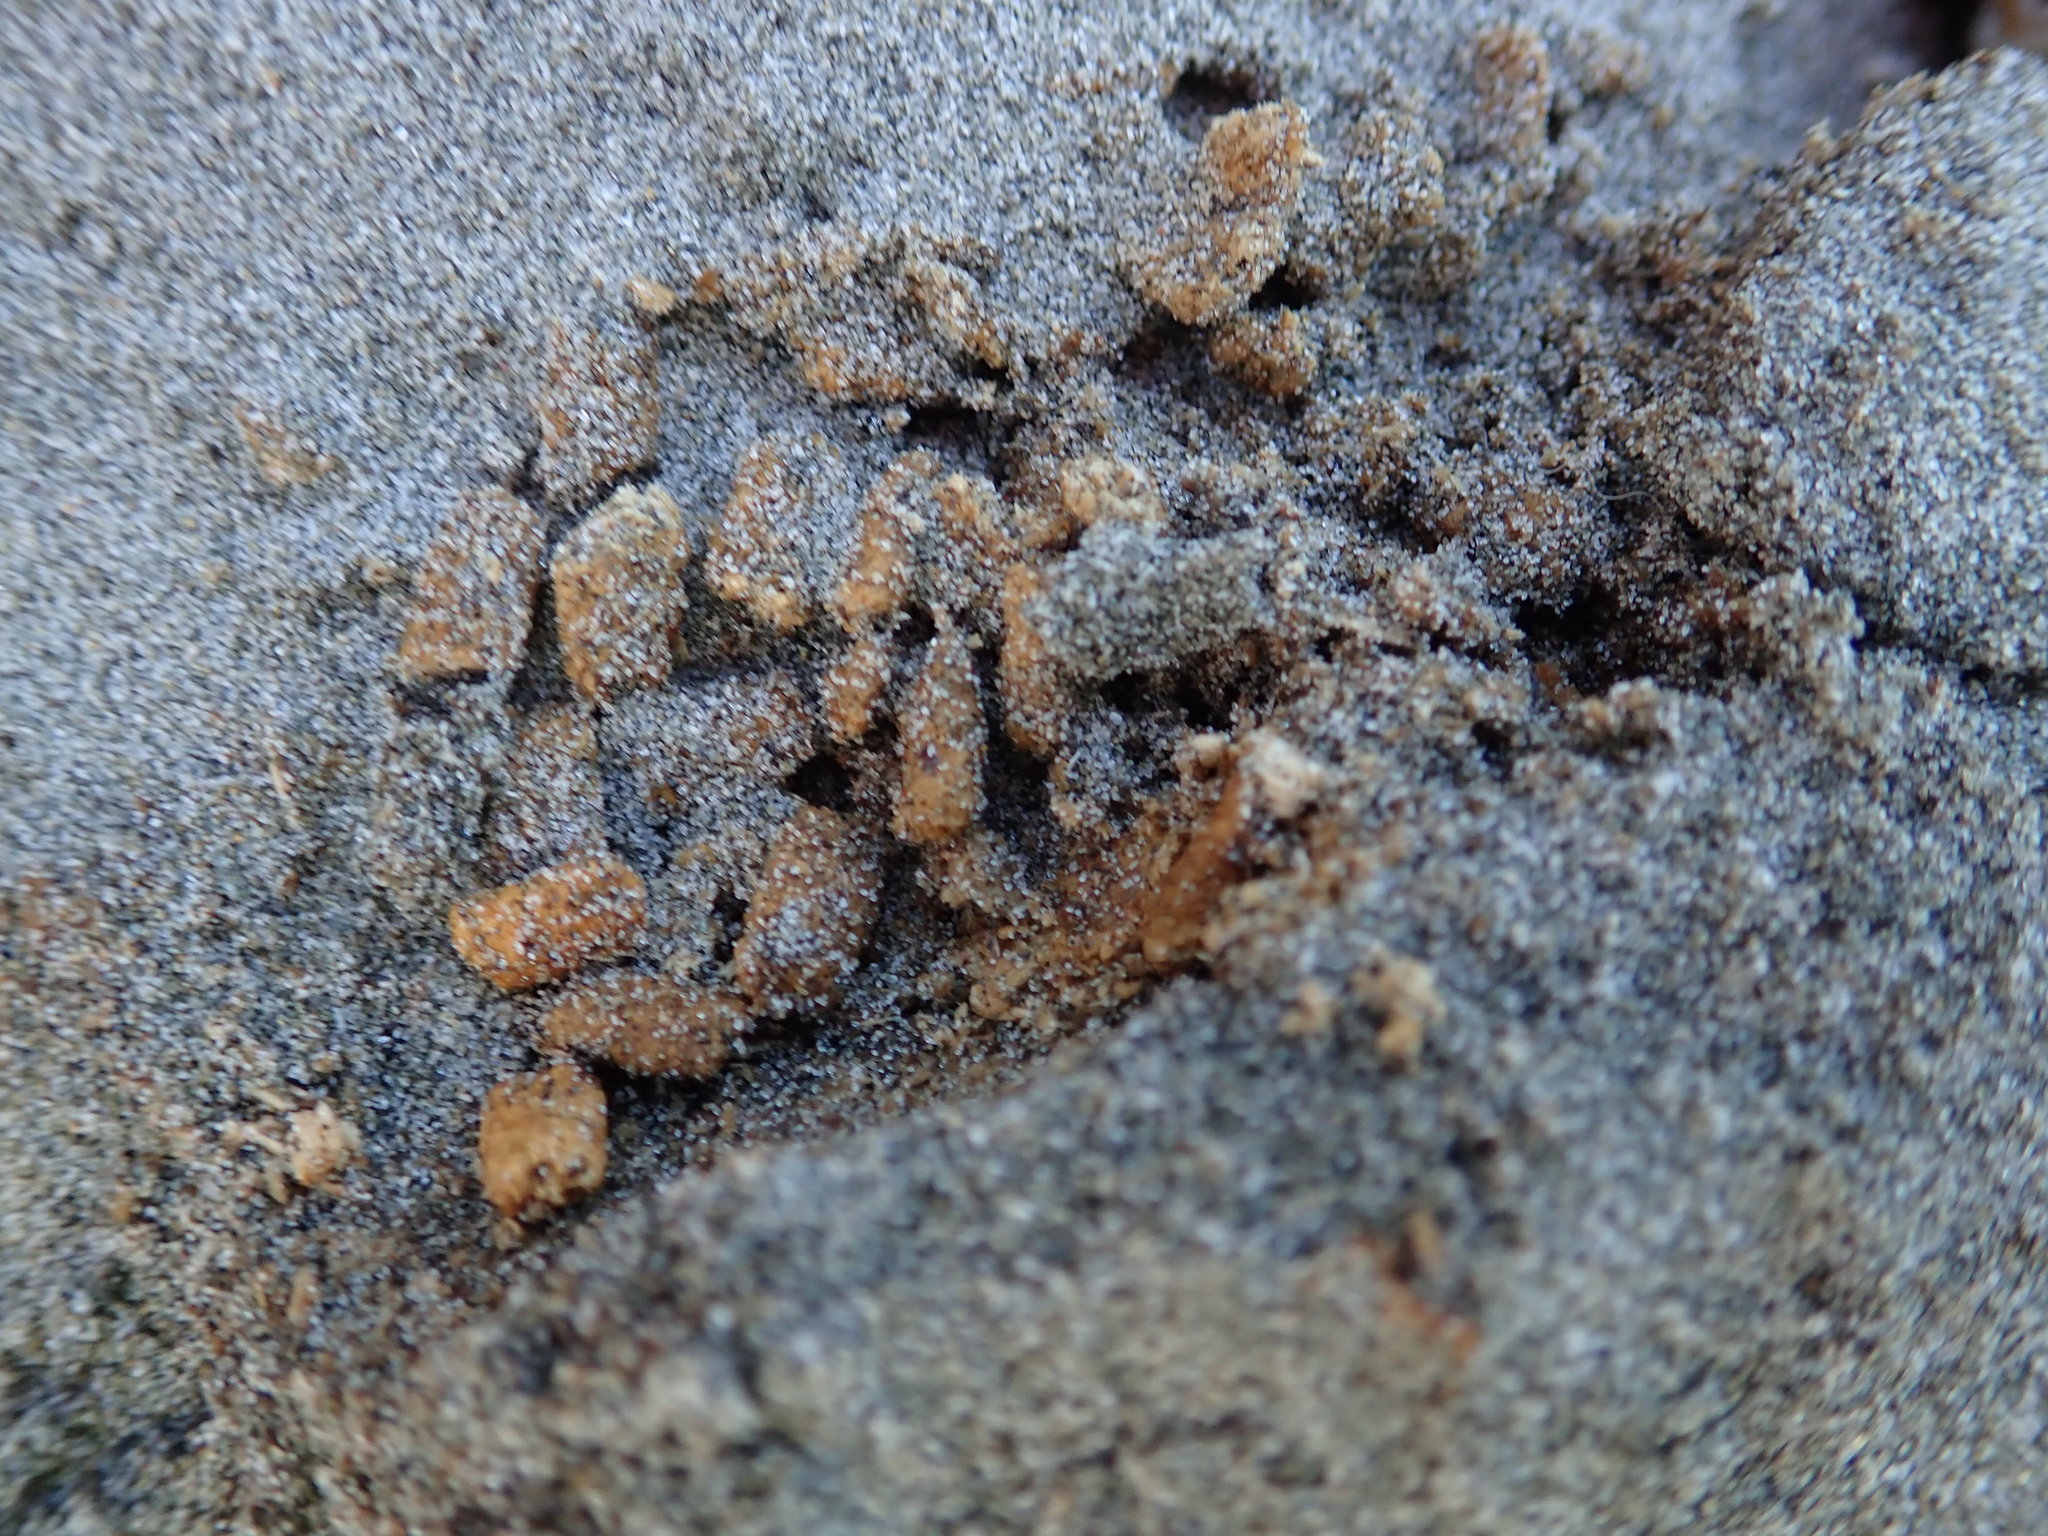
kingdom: Animalia
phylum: Arthropoda
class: Insecta
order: Coleoptera
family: Scarabaeidae
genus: Pericoptus
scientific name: Pericoptus truncatus
